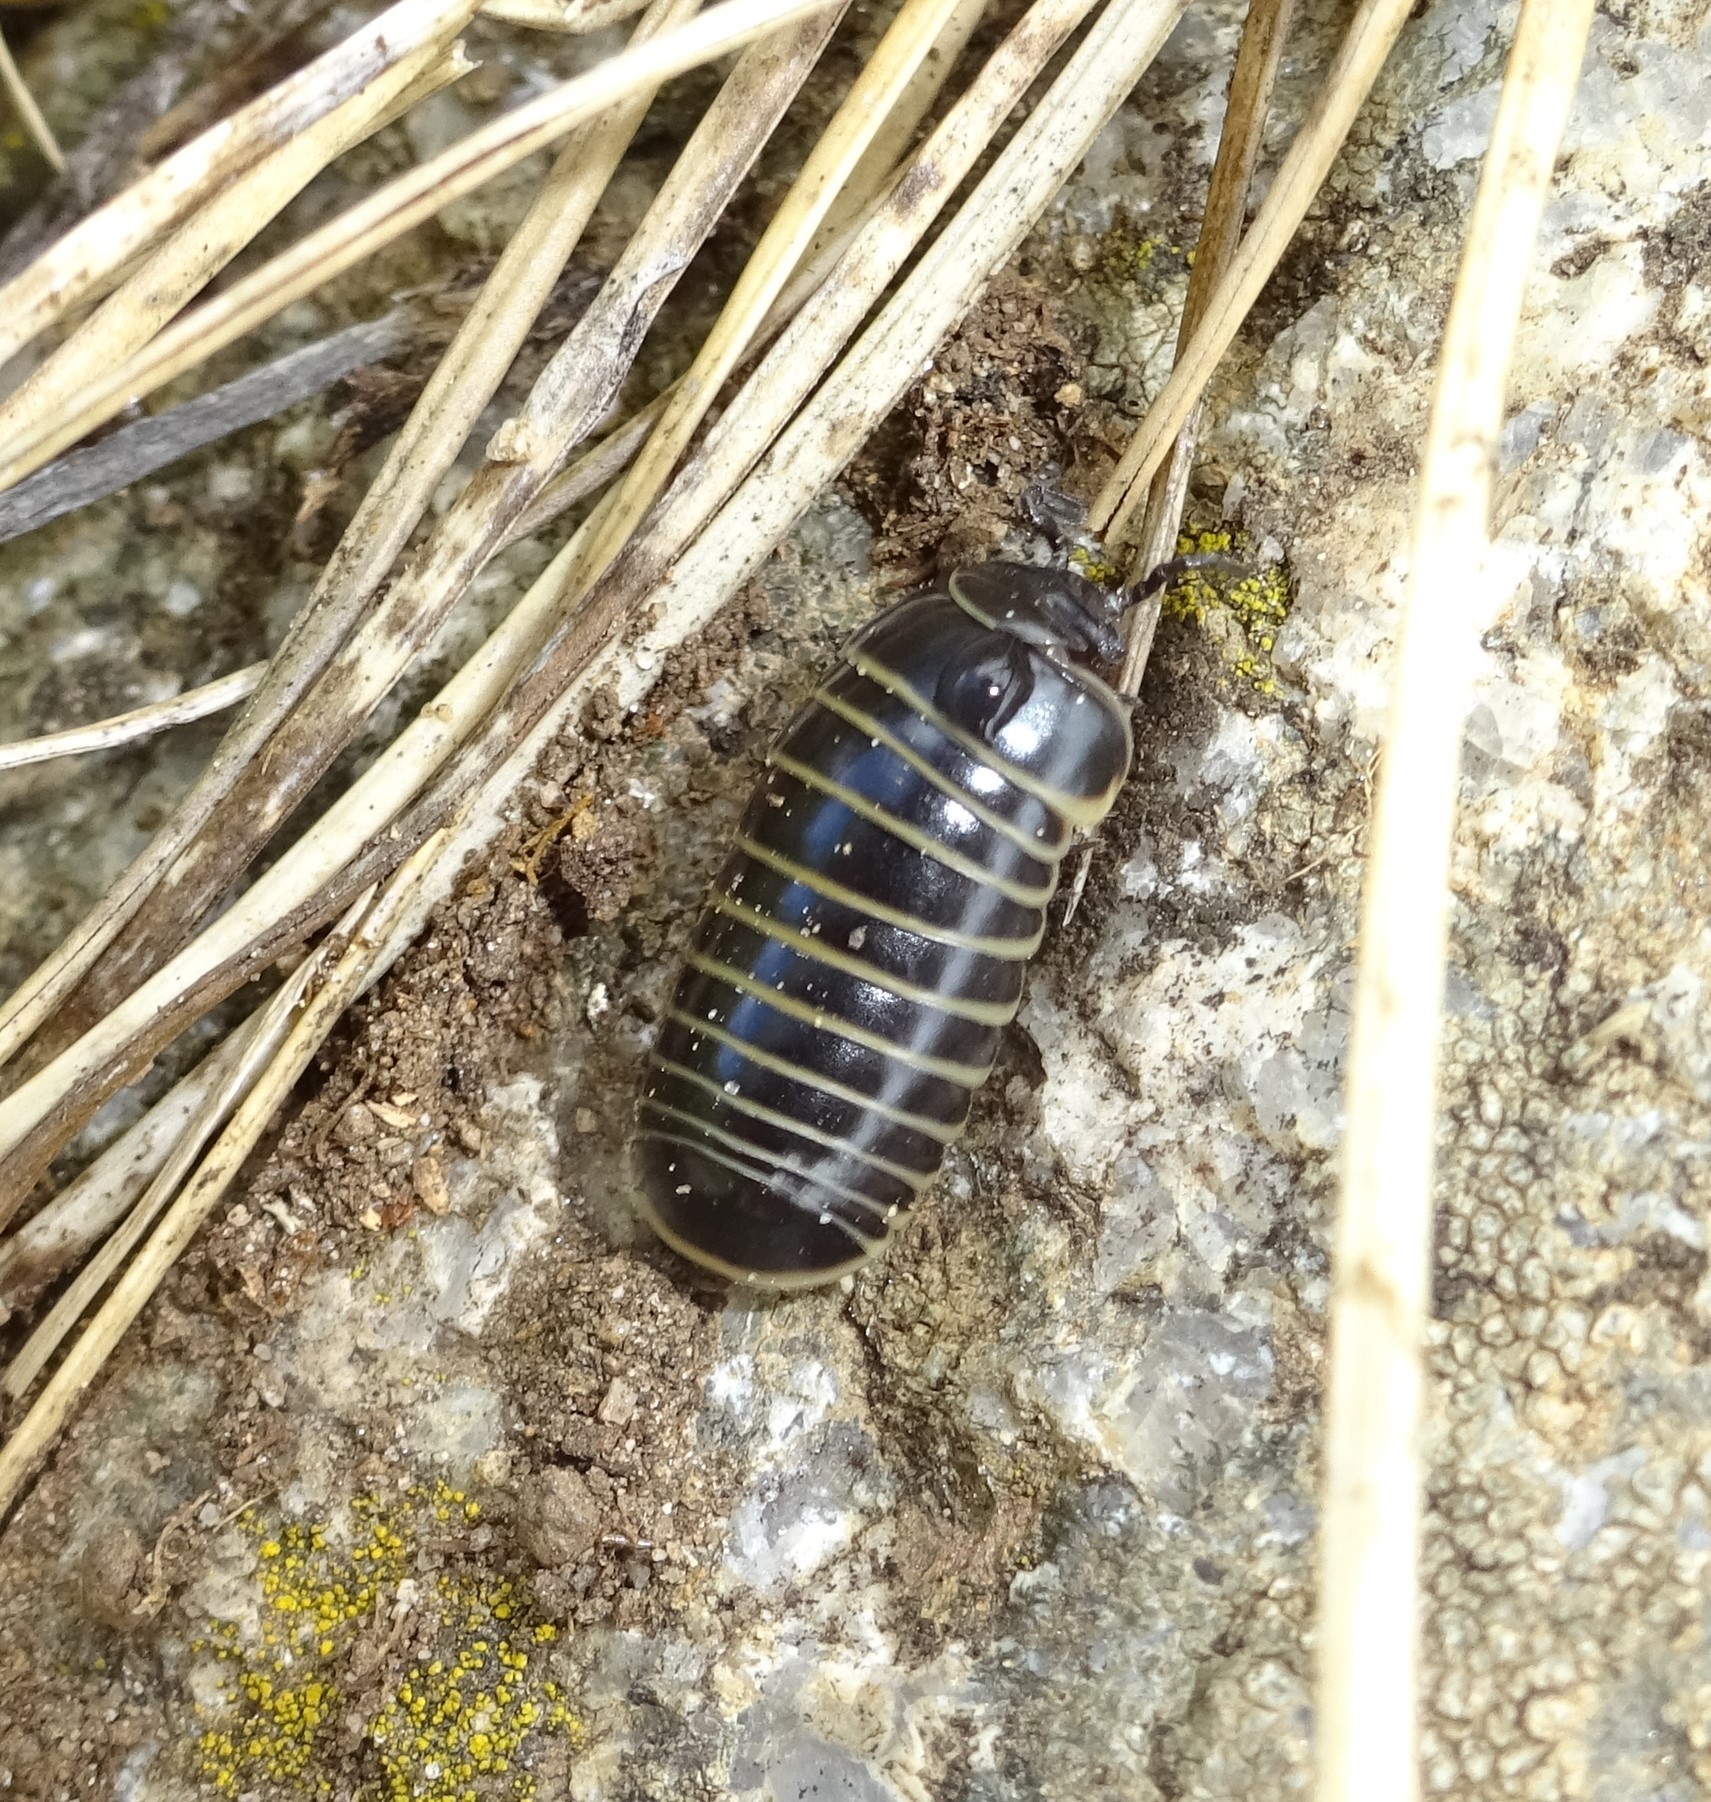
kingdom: Animalia
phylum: Arthropoda
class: Diplopoda
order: Glomerida
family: Glomeridae
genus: Glomeris
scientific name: Glomeris marginata
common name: Bordered pill millipede
